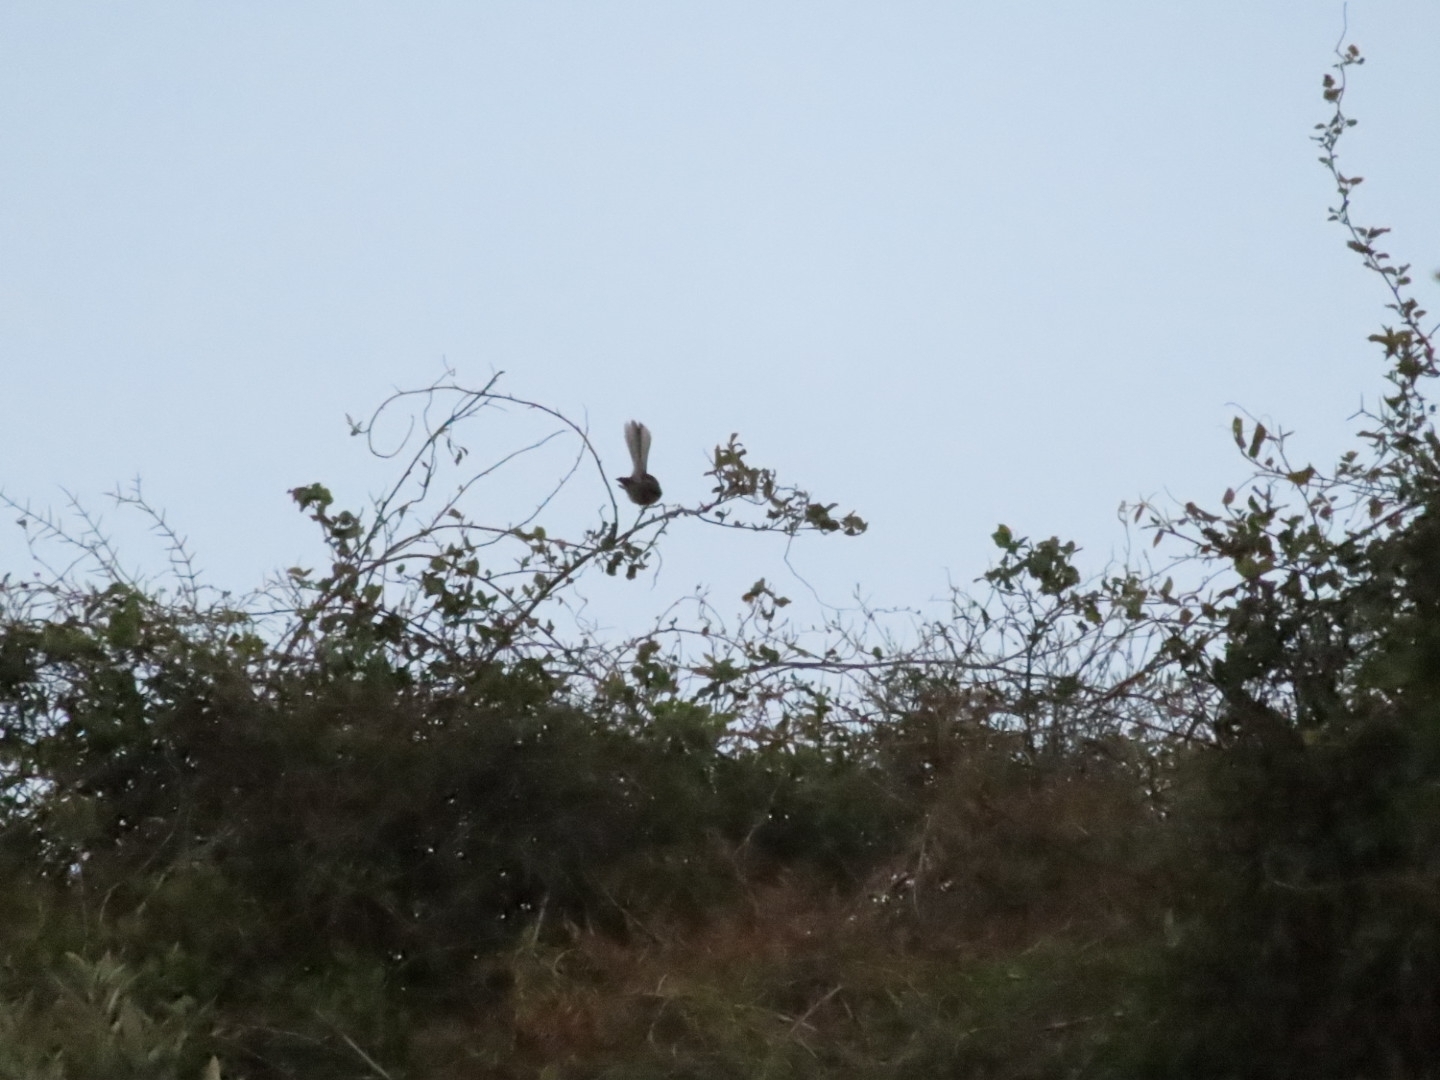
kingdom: Animalia
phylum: Chordata
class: Aves
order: Passeriformes
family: Rhipiduridae
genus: Rhipidura
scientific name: Rhipidura fuliginosa
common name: New zealand fantail
